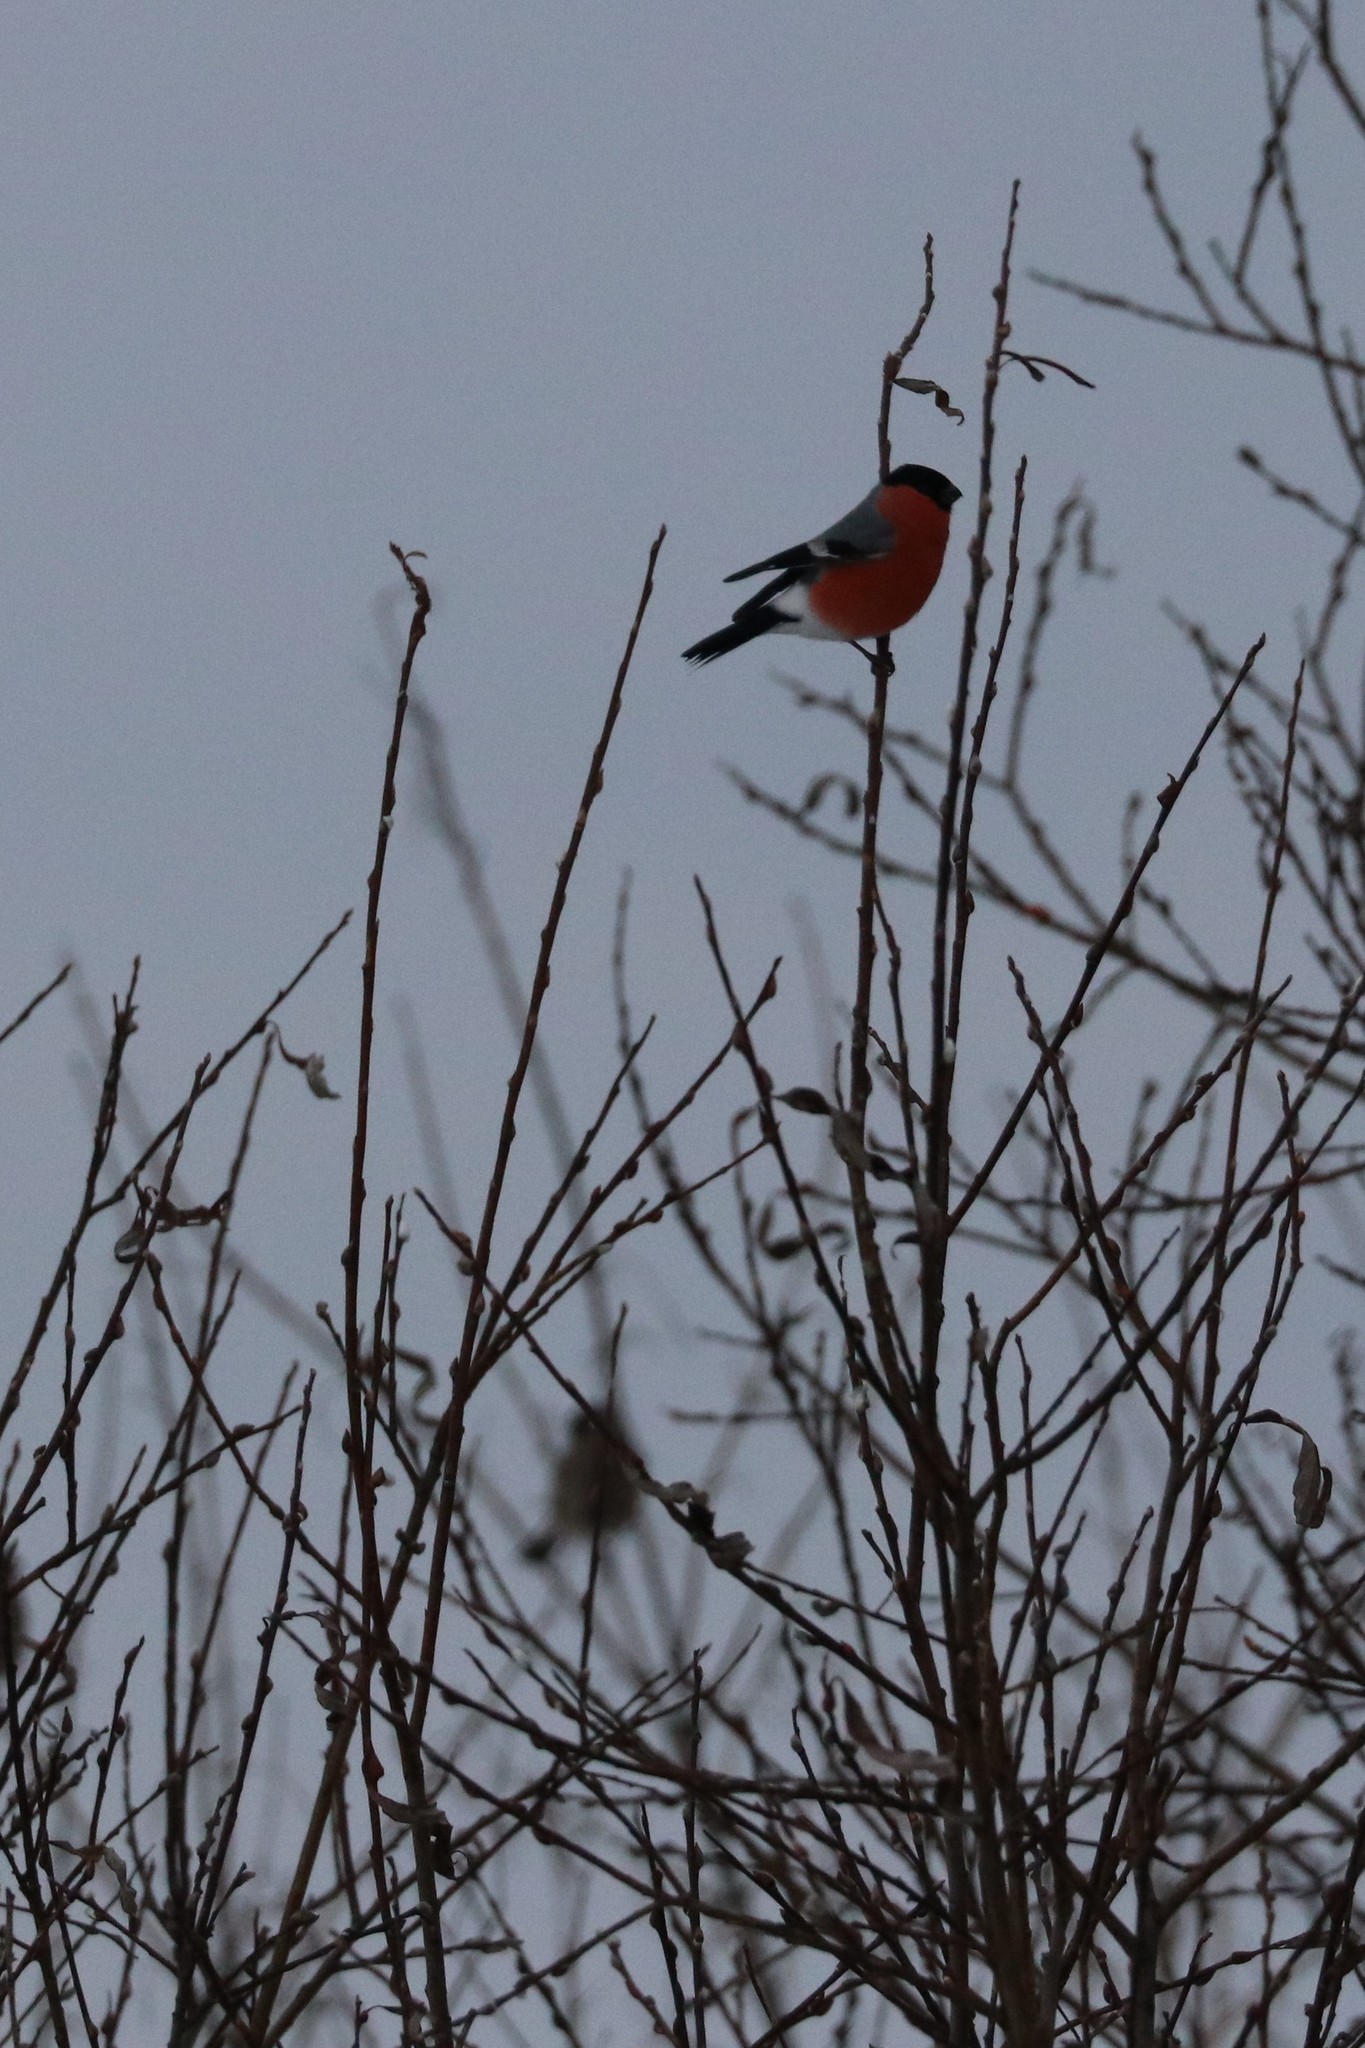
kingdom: Animalia
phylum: Chordata
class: Aves
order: Passeriformes
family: Fringillidae
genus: Pyrrhula
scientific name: Pyrrhula pyrrhula
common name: Eurasian bullfinch
